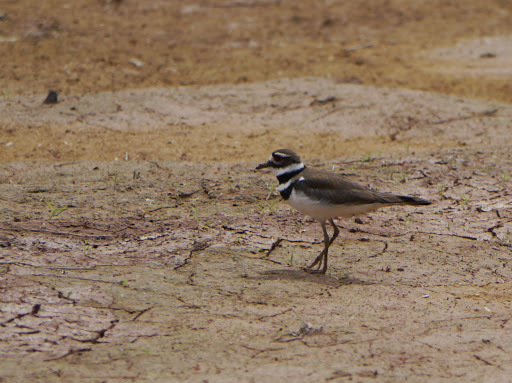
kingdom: Animalia
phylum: Chordata
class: Aves
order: Charadriiformes
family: Charadriidae
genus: Charadrius
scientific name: Charadrius vociferus
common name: Killdeer
